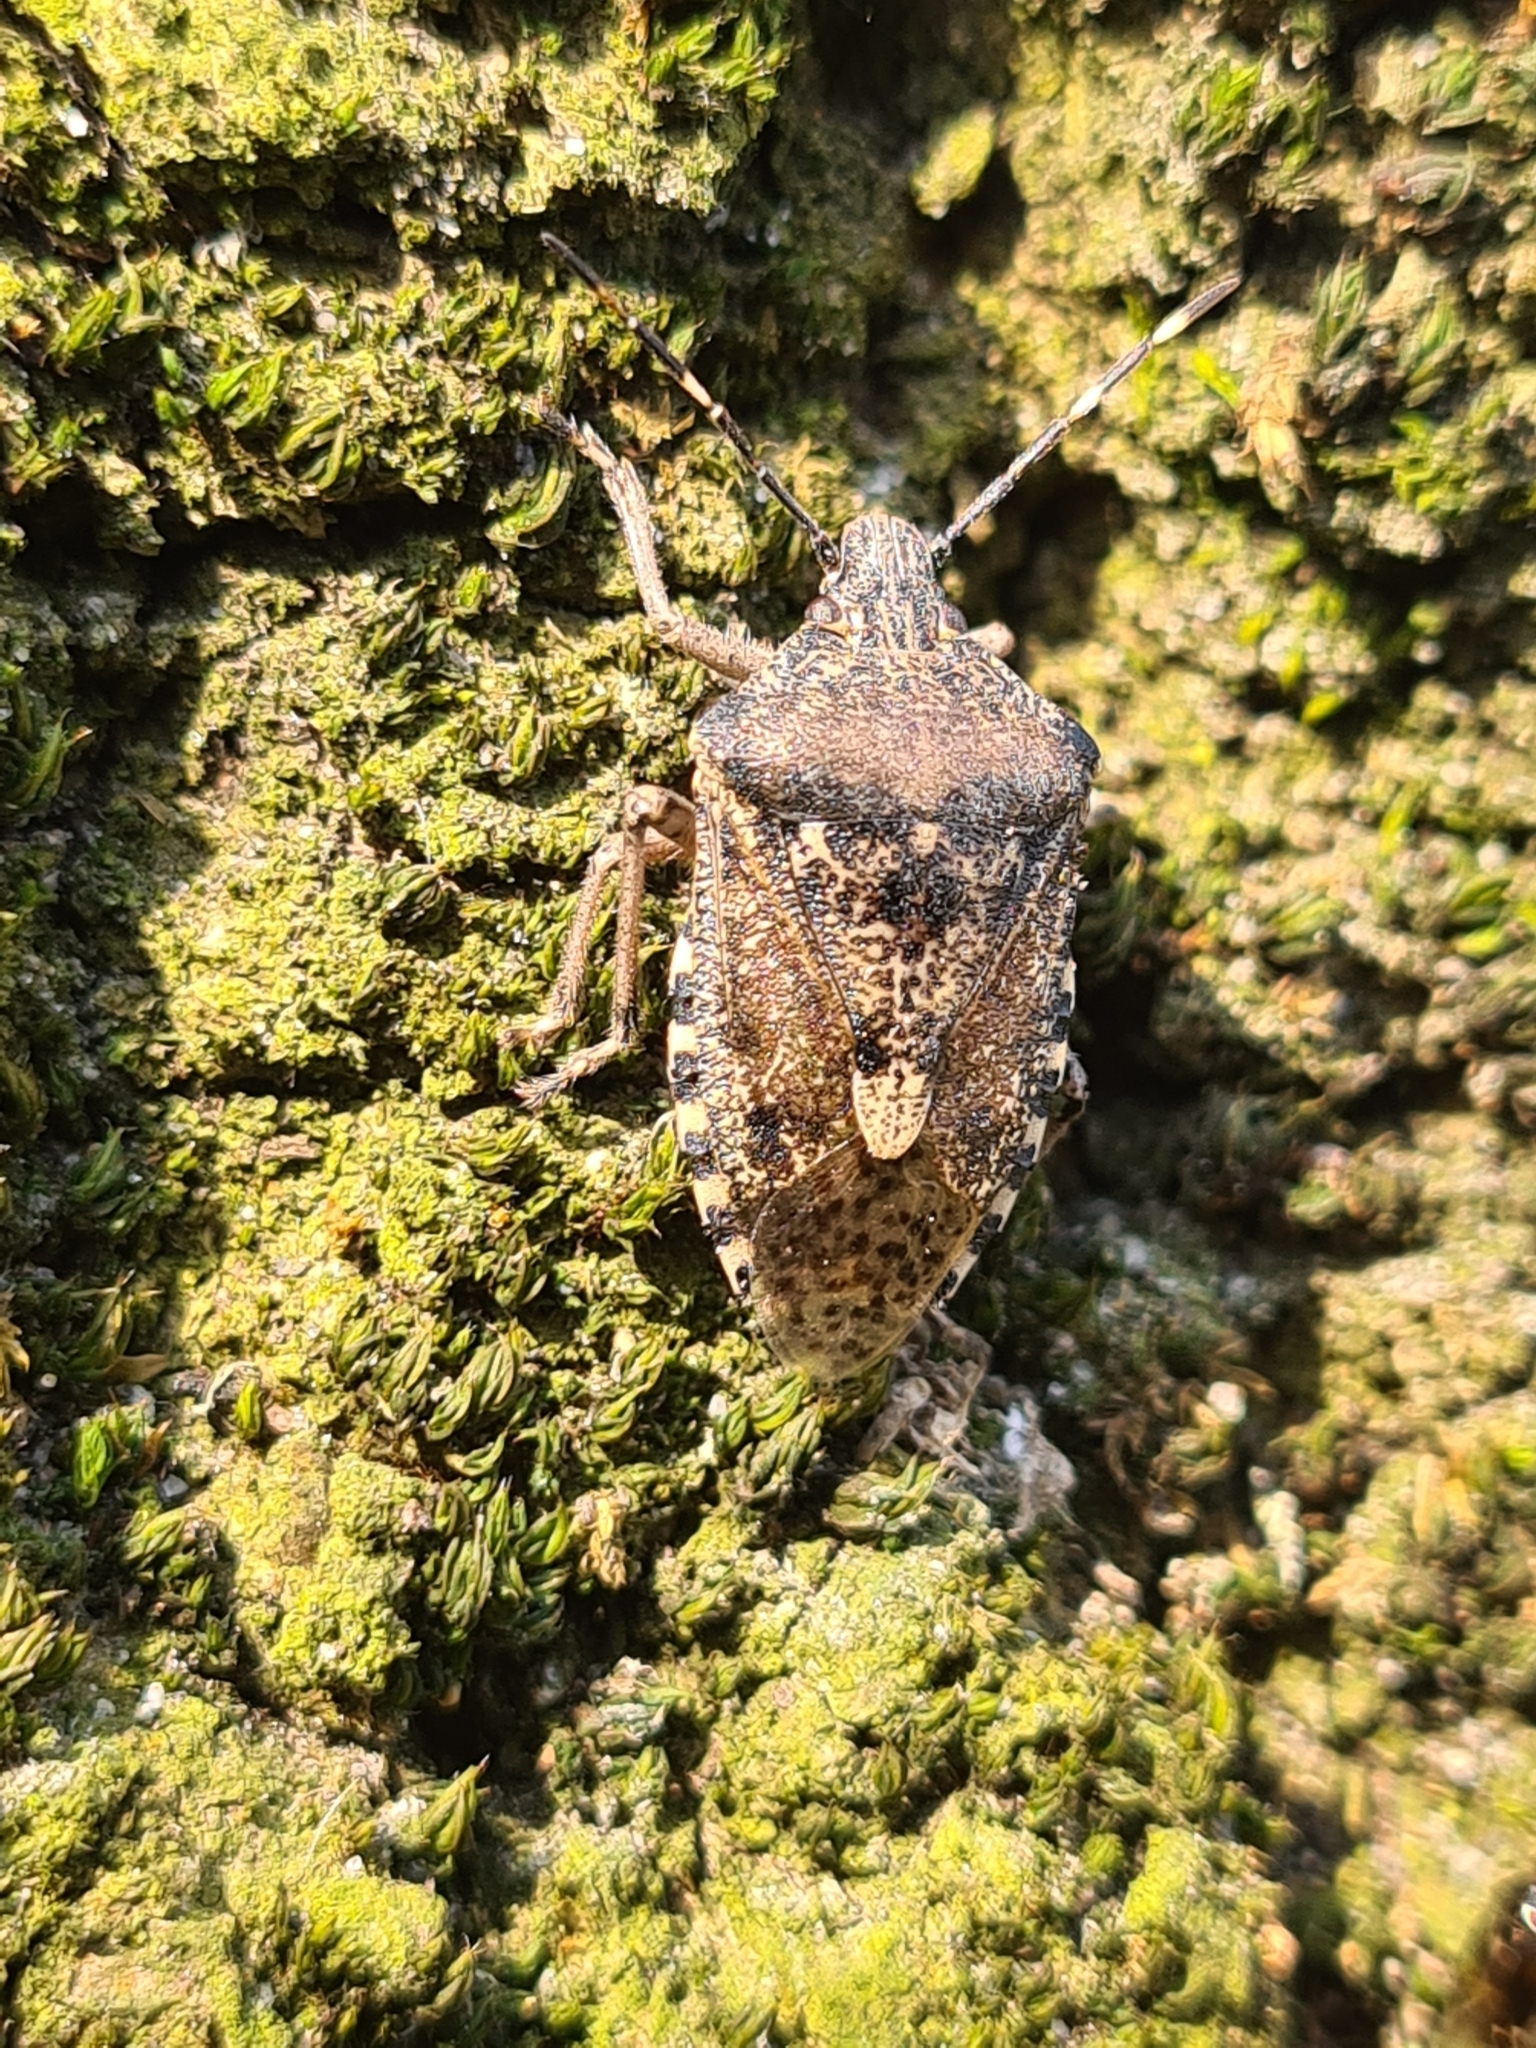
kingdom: Animalia
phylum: Arthropoda
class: Insecta
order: Hemiptera
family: Pentatomidae
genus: Rhaphigaster
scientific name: Rhaphigaster nebulosa
